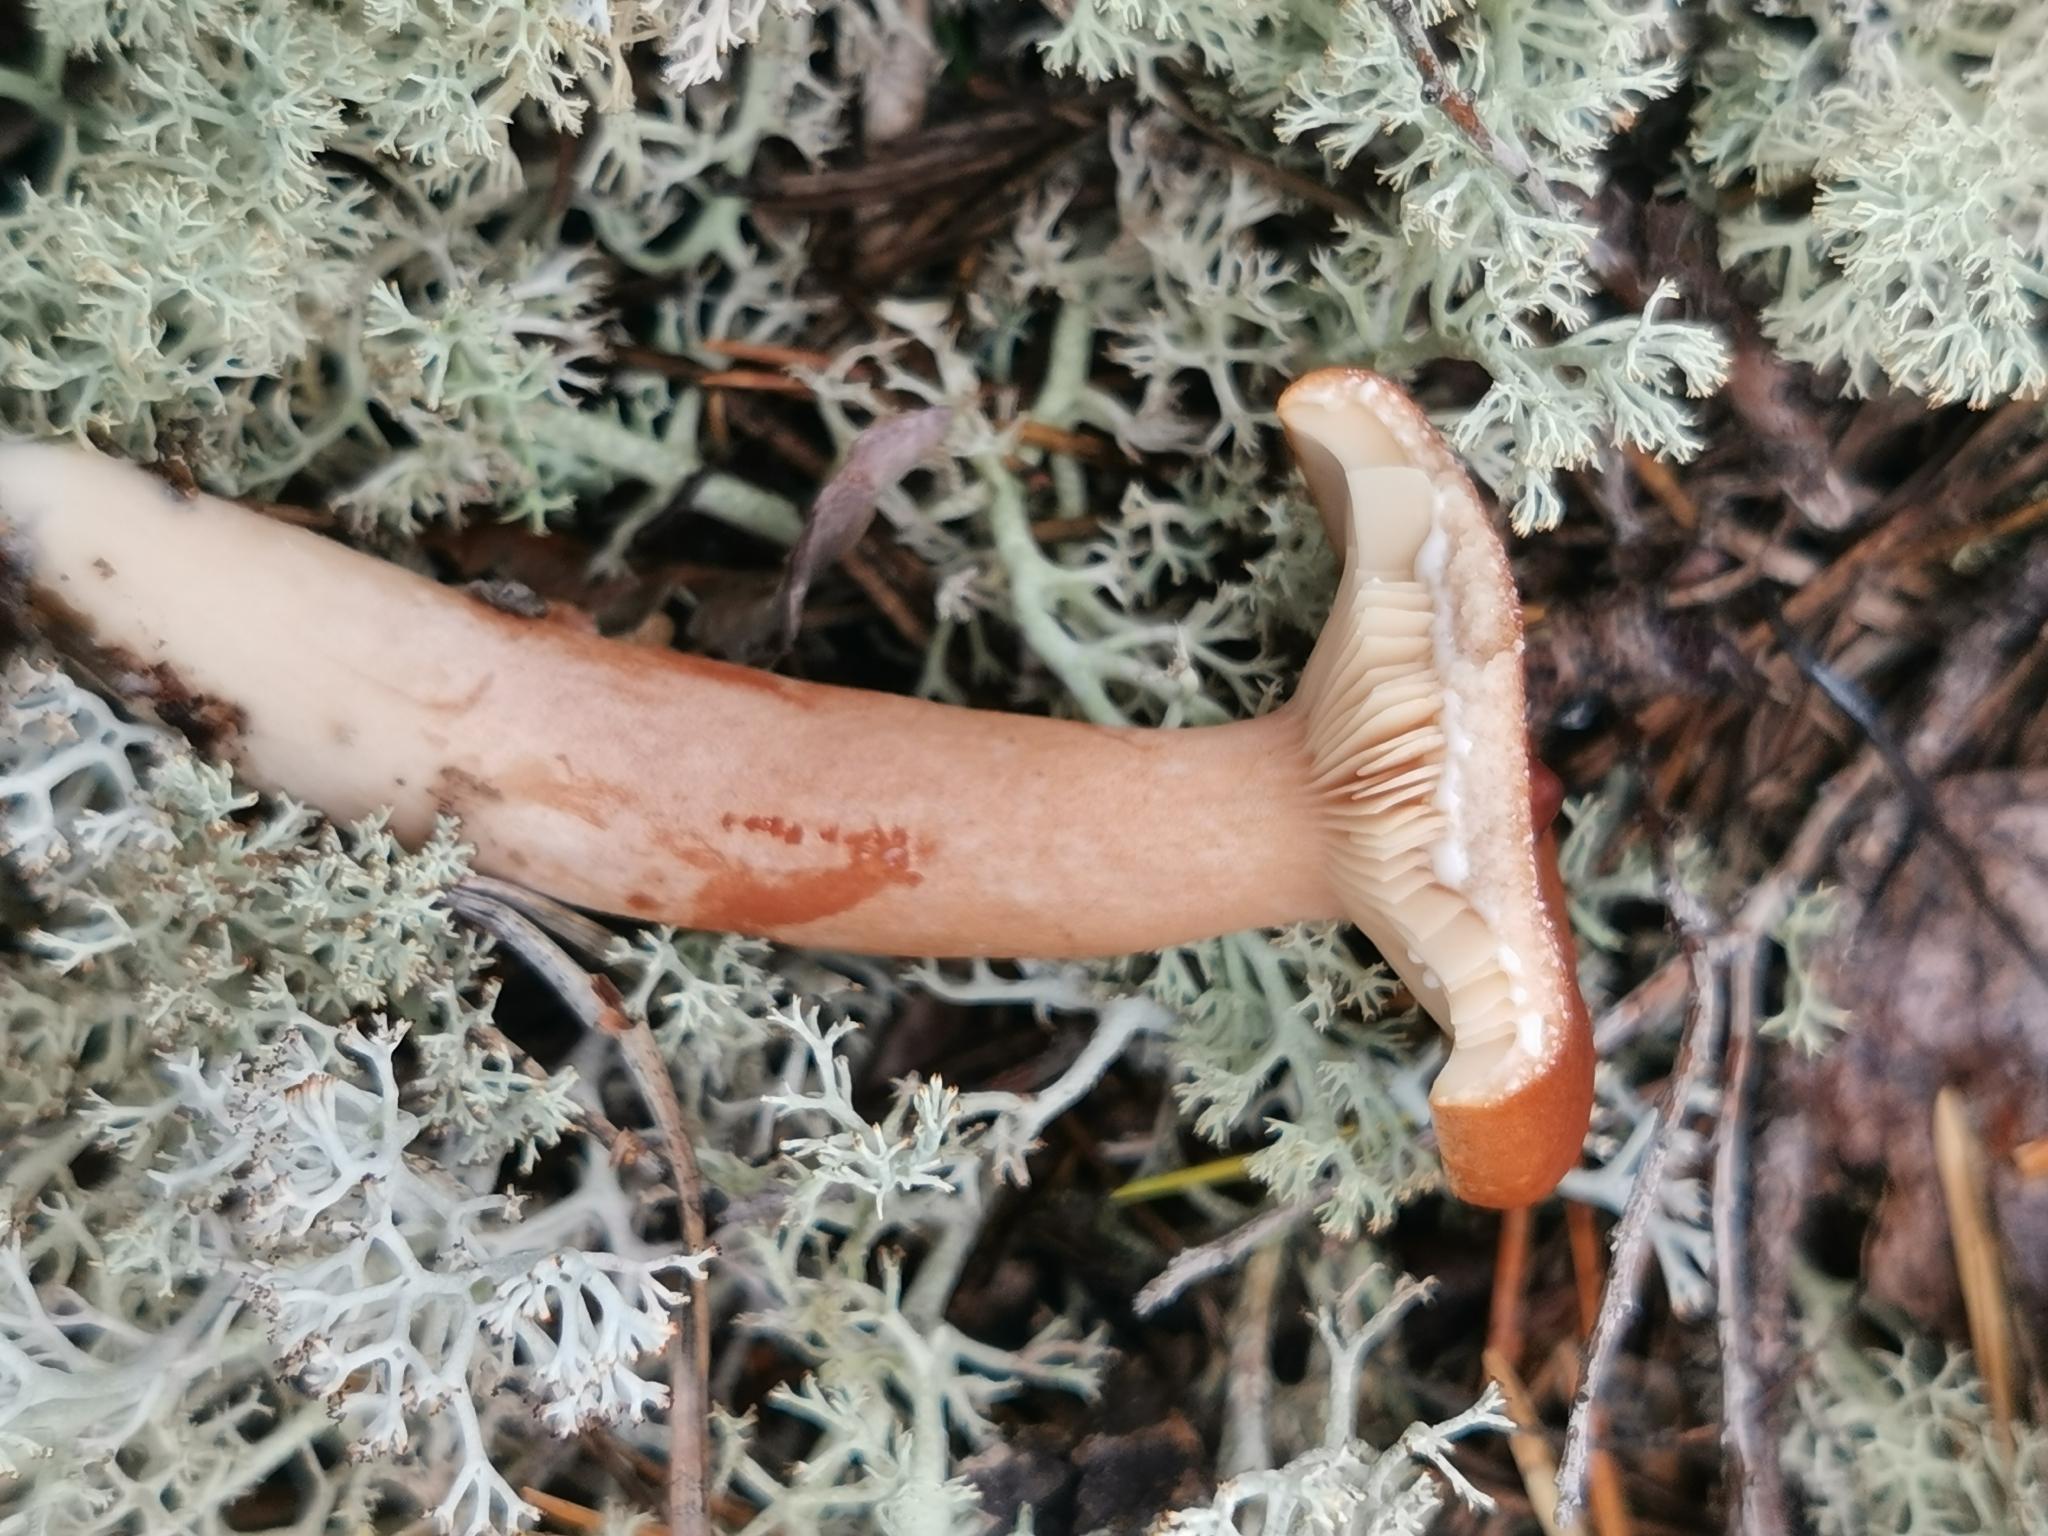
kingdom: Fungi
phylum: Basidiomycota
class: Agaricomycetes
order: Russulales
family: Russulaceae
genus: Lactarius
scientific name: Lactarius rufus
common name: Rufous milk-cap
